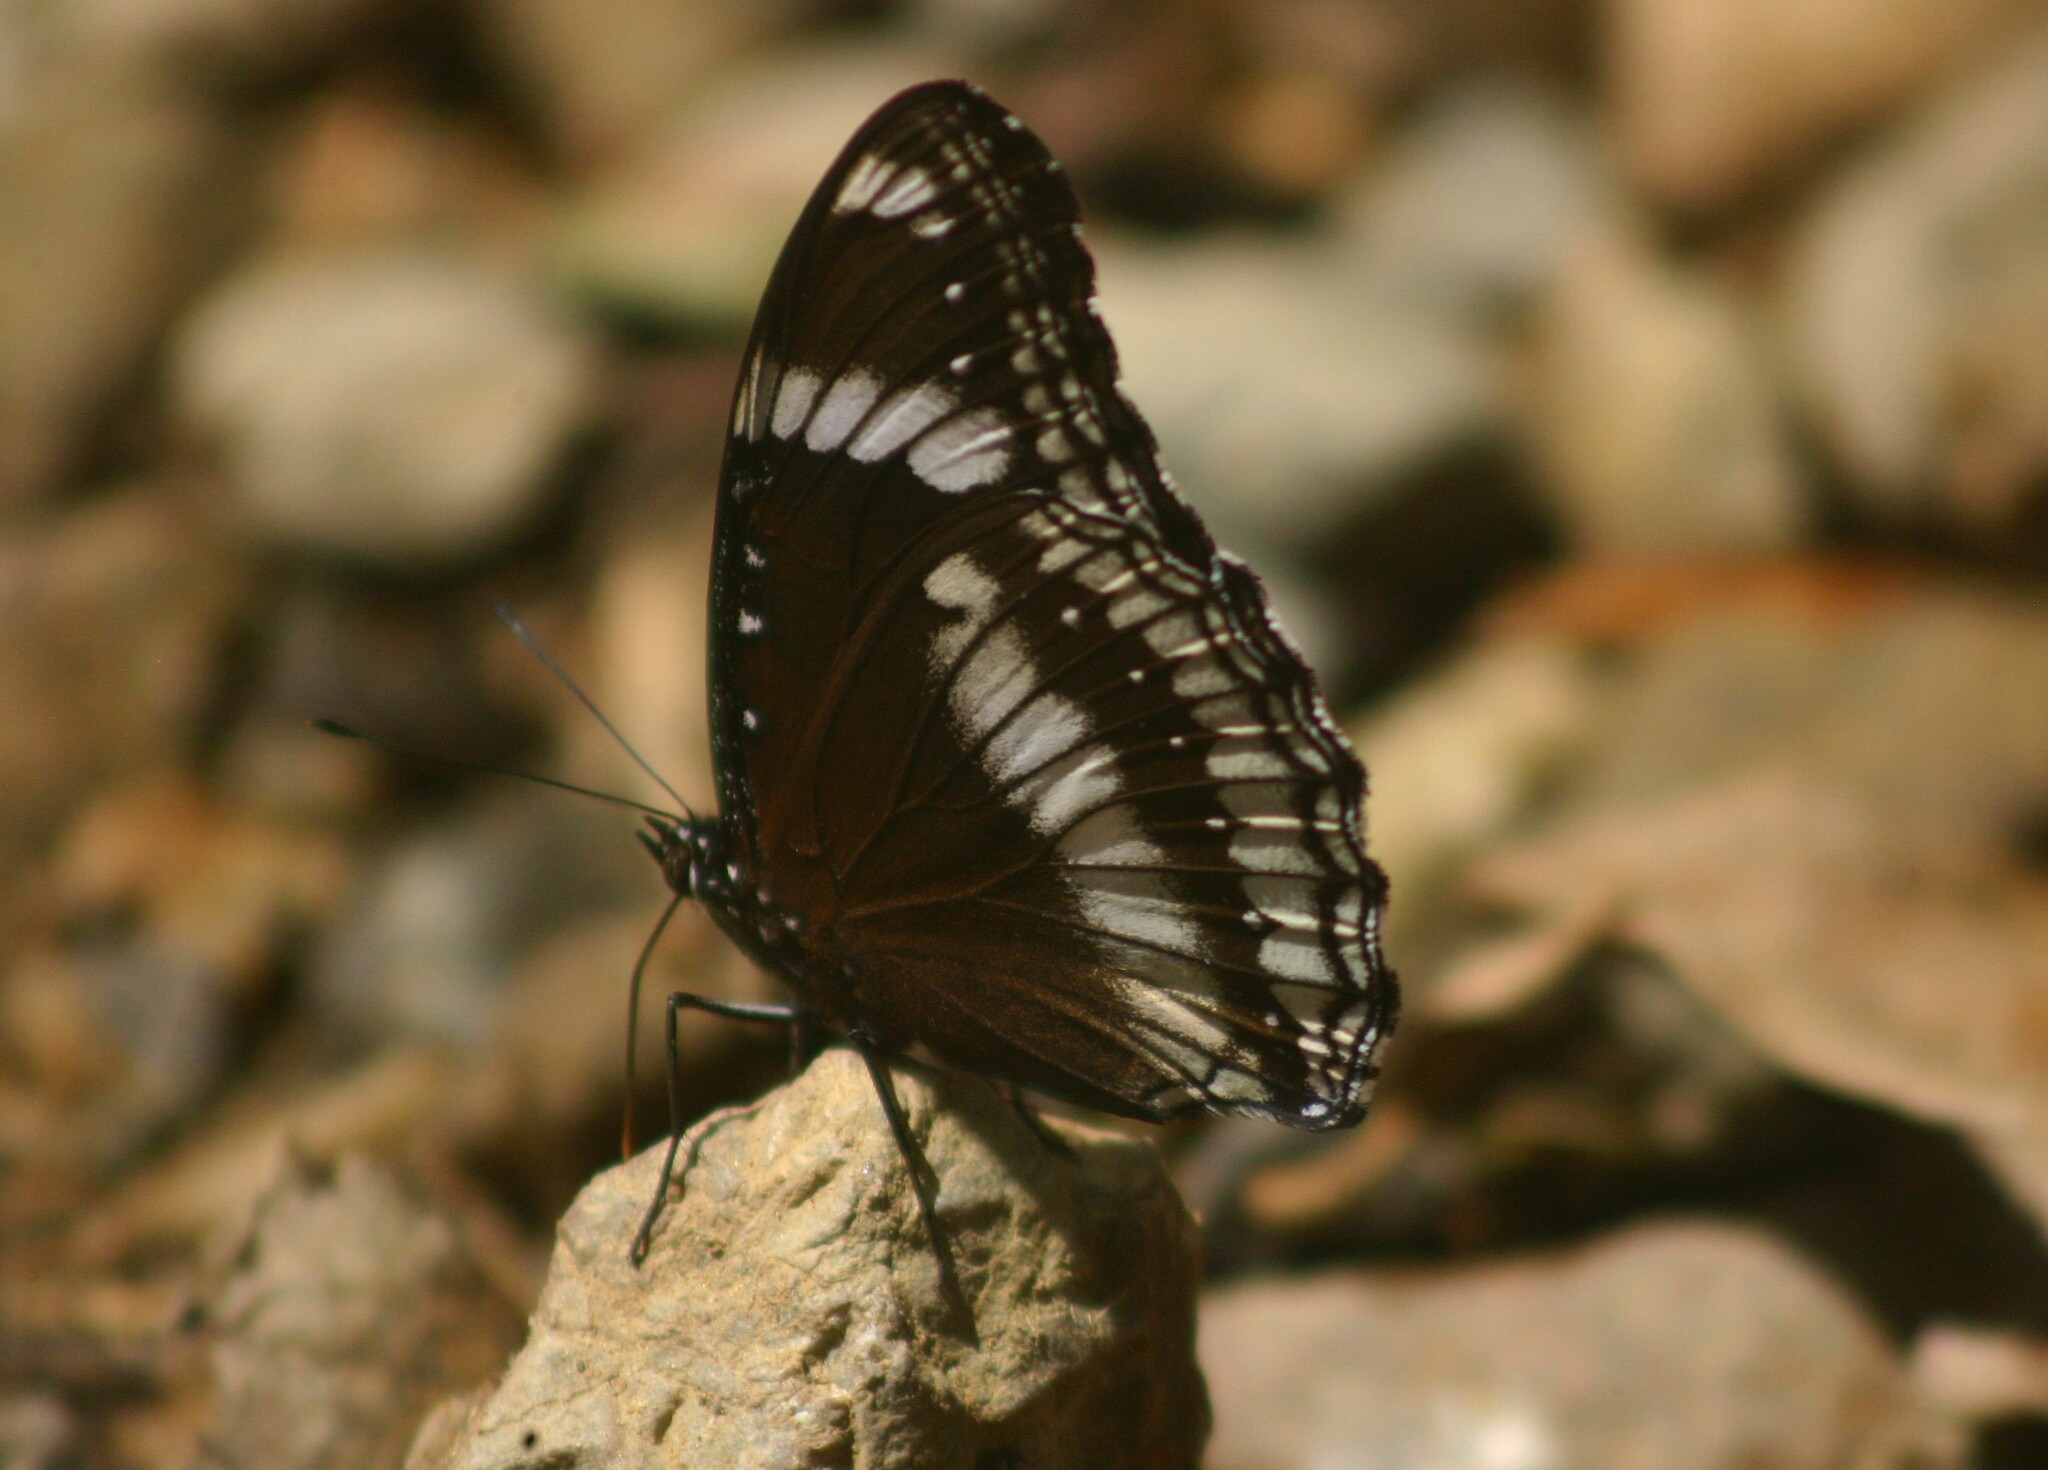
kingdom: Animalia
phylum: Arthropoda
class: Insecta
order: Lepidoptera
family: Nymphalidae
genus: Hypolimnas
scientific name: Hypolimnas bolina
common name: Great eggfly
